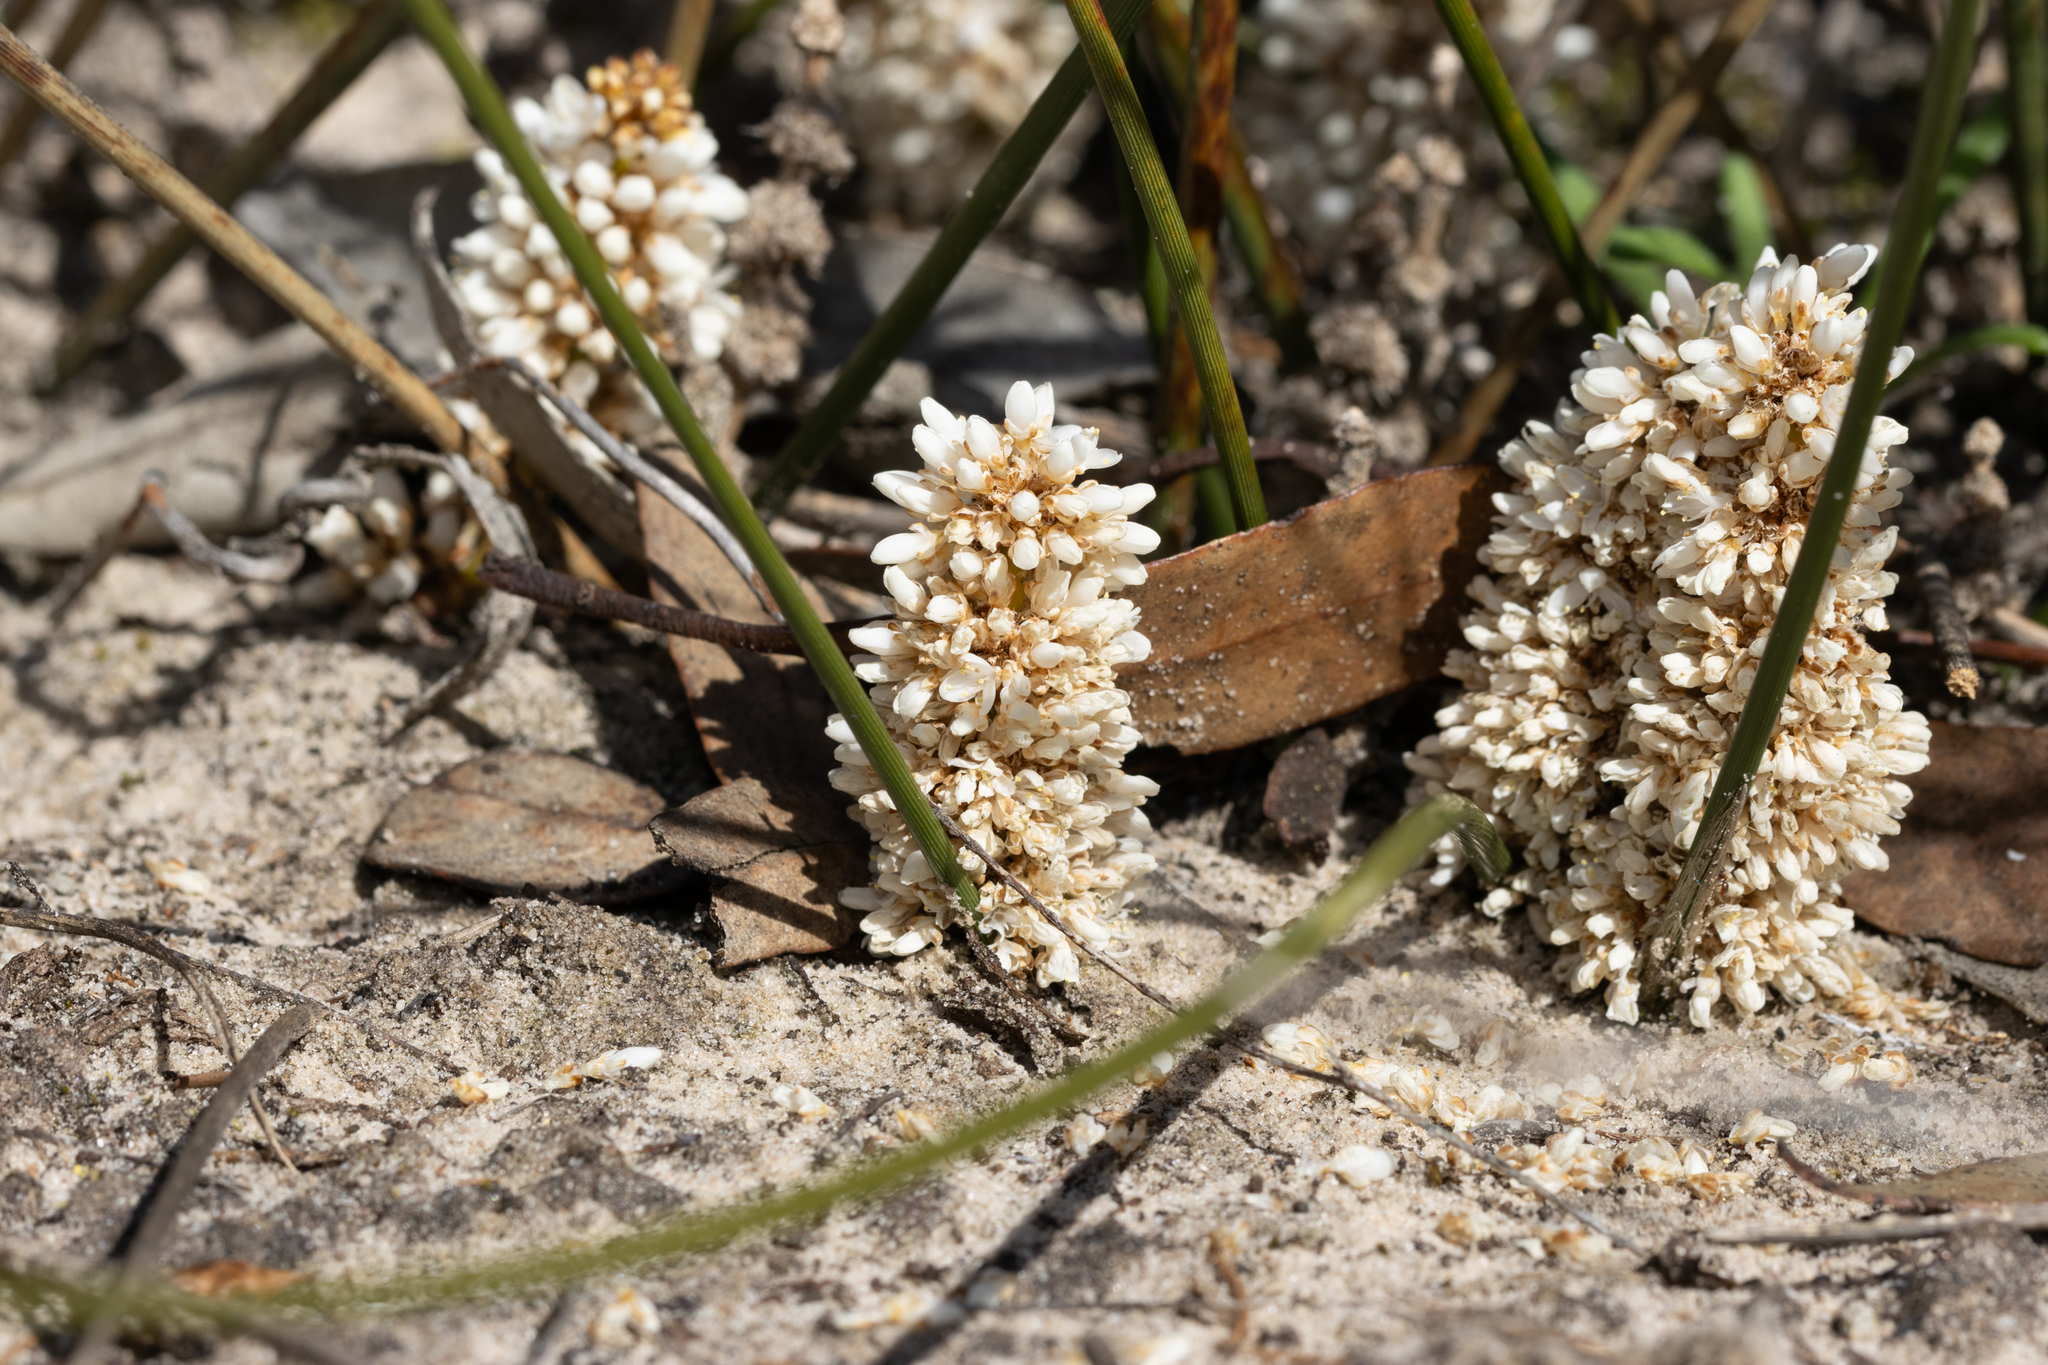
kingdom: Plantae
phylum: Tracheophyta
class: Liliopsida
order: Asparagales
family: Asparagaceae
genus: Lomandra
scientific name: Lomandra juncea
